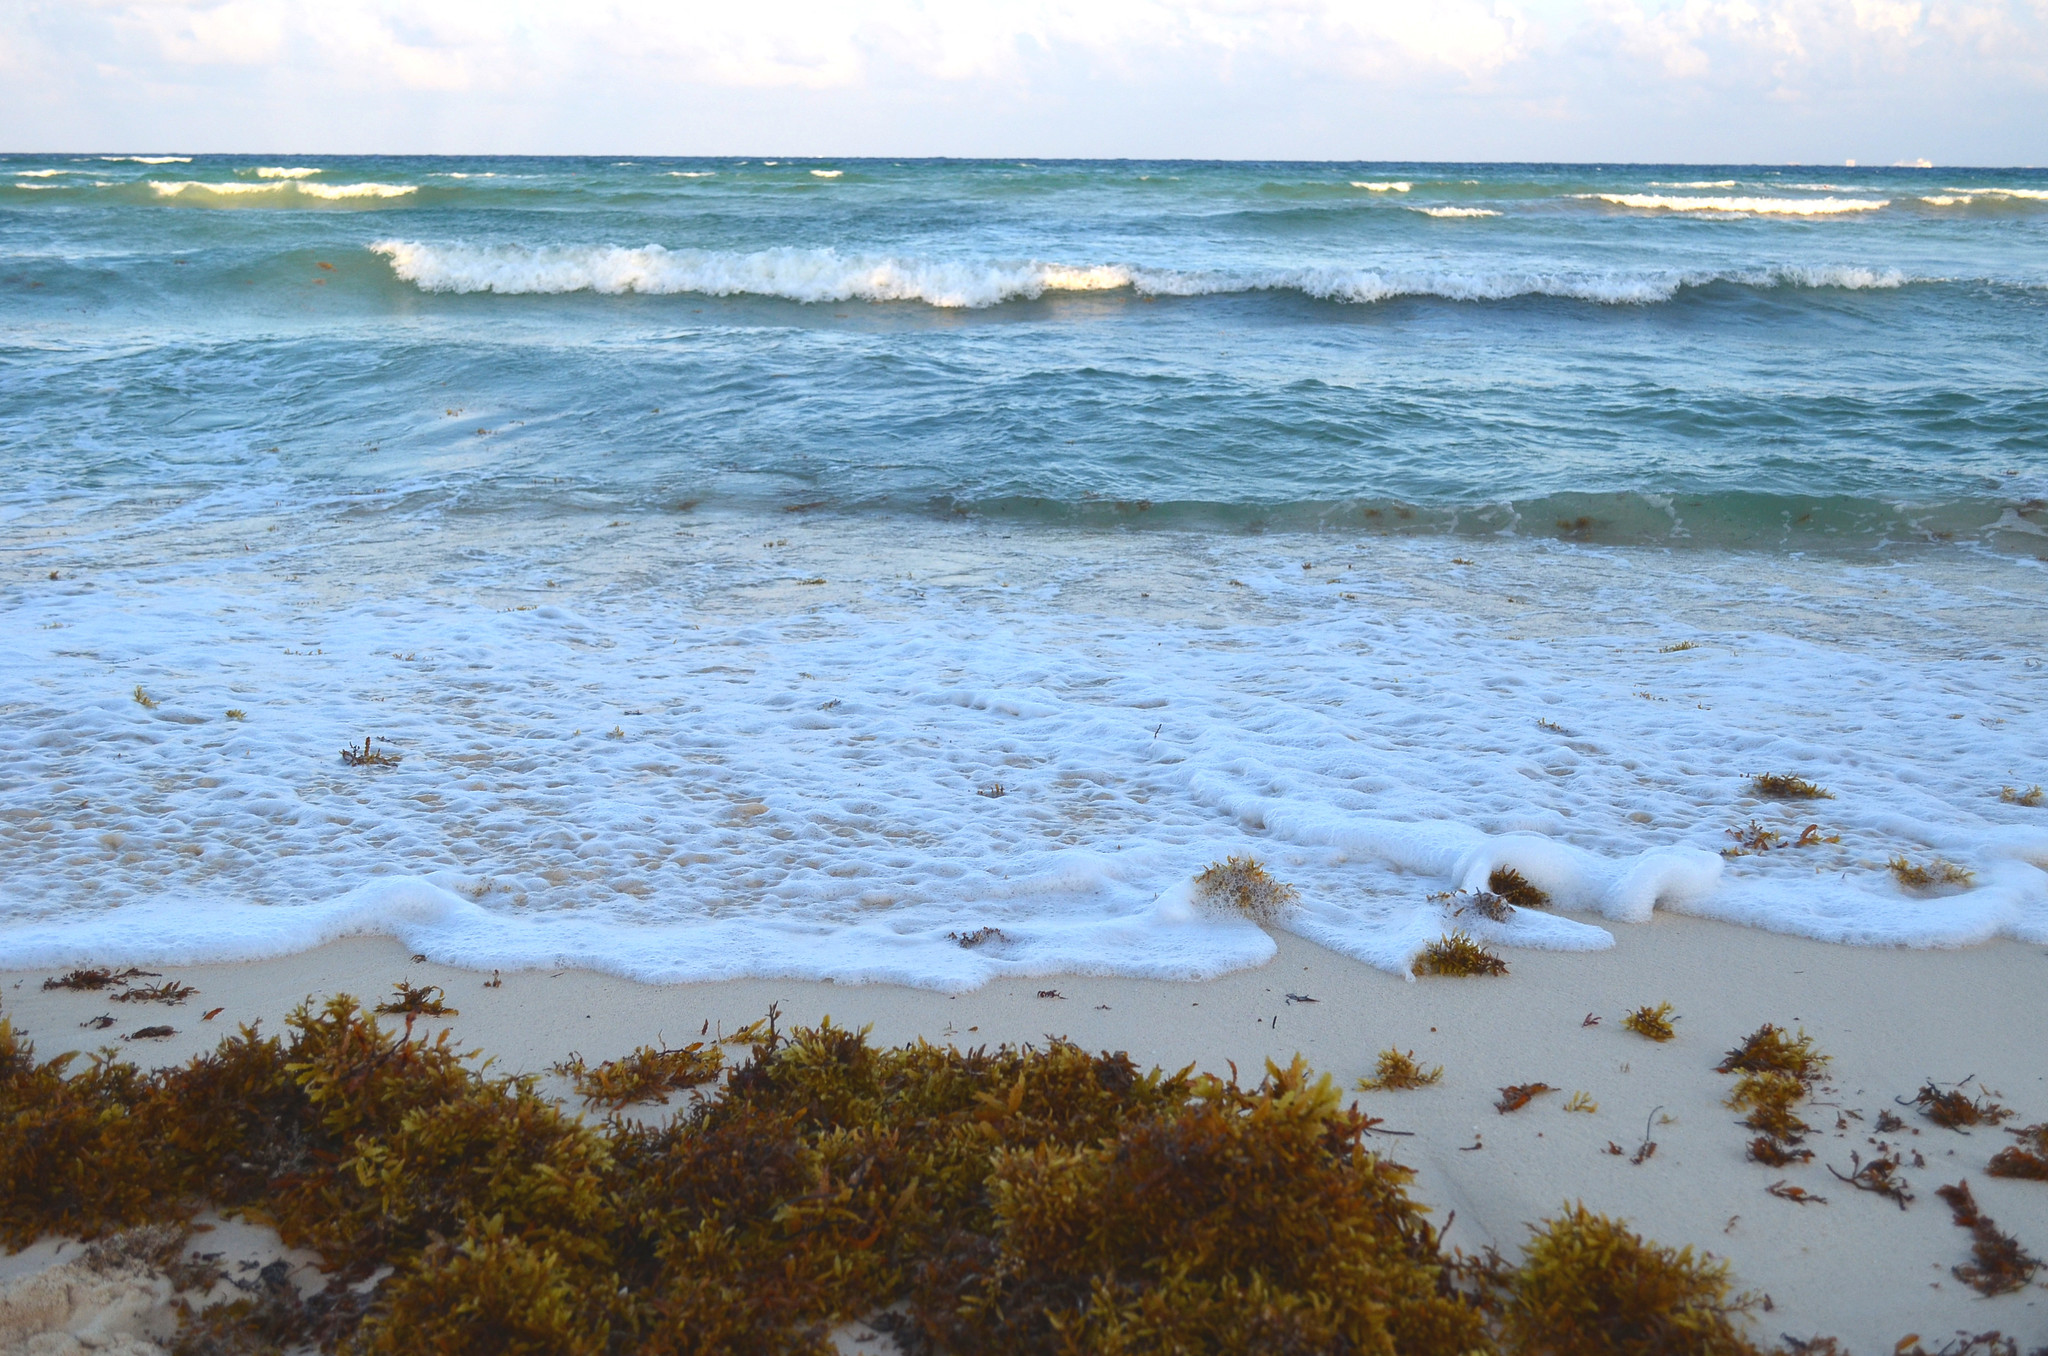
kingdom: Chromista
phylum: Ochrophyta
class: Phaeophyceae
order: Fucales
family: Sargassaceae
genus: Sargassum
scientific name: Sargassum fluitans
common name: Sargassum seaweed
